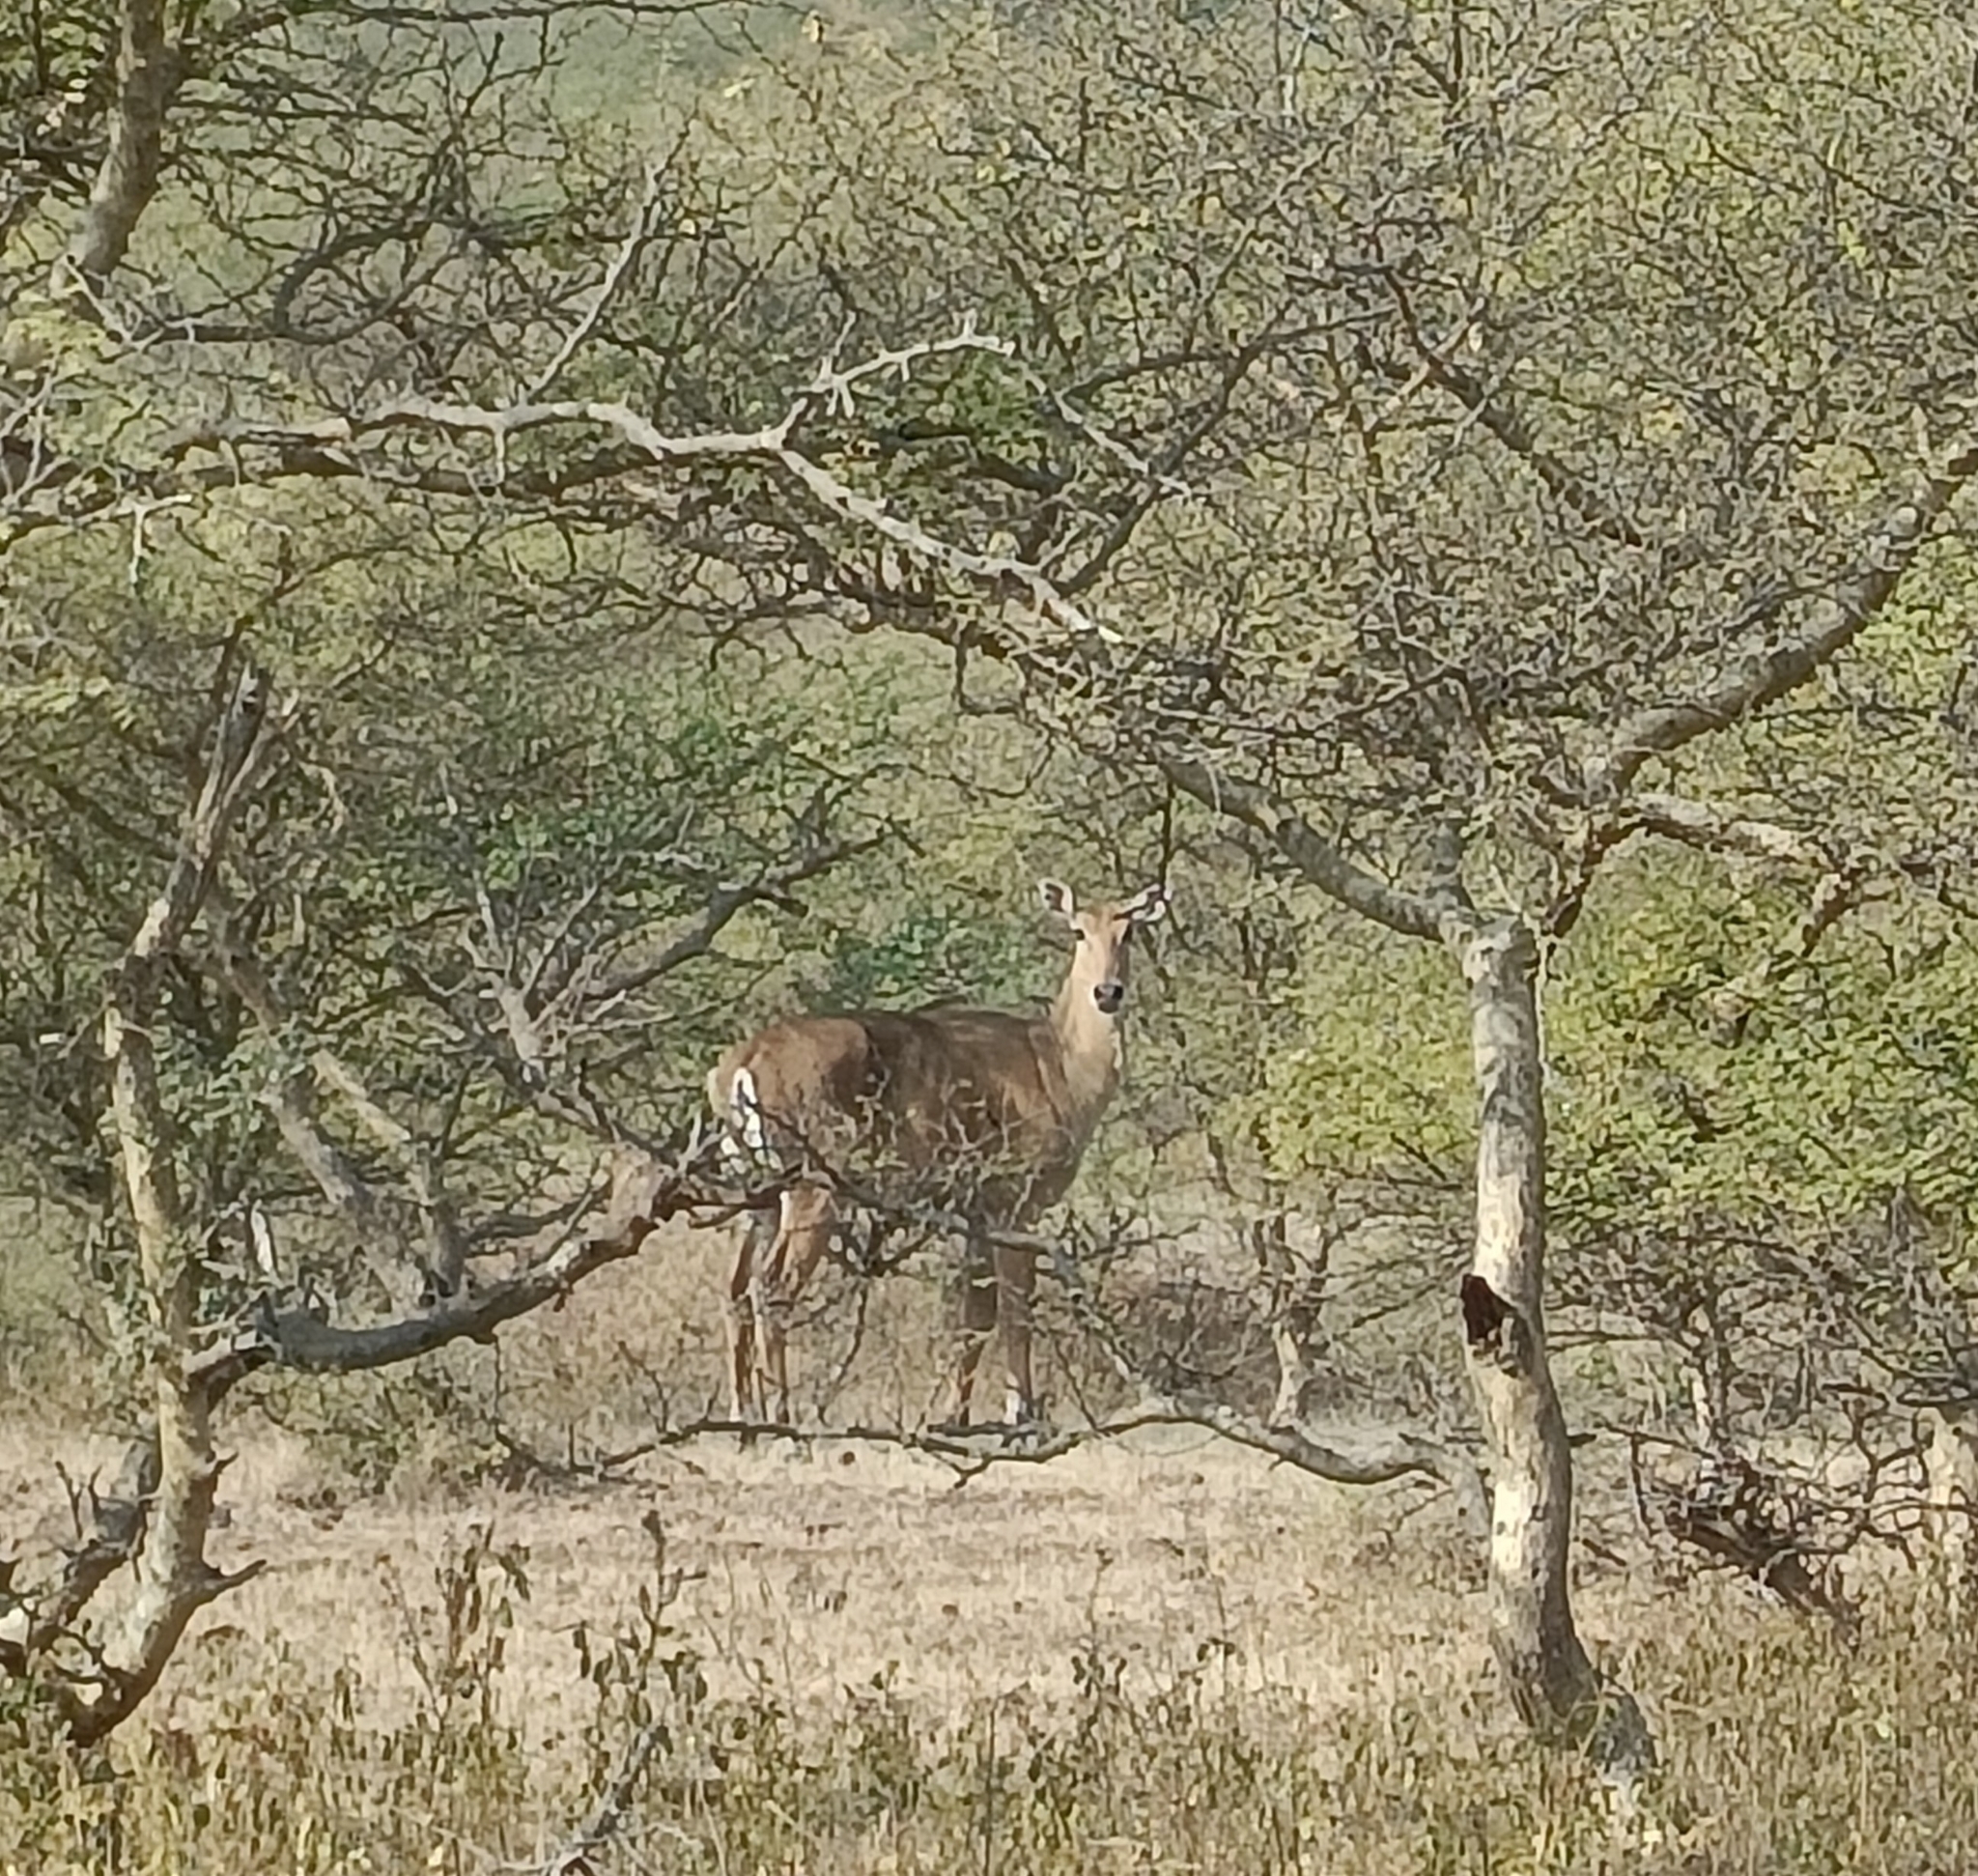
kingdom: Animalia
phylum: Chordata
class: Mammalia
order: Artiodactyla
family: Bovidae
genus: Boselaphus
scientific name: Boselaphus tragocamelus
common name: Nilgai
